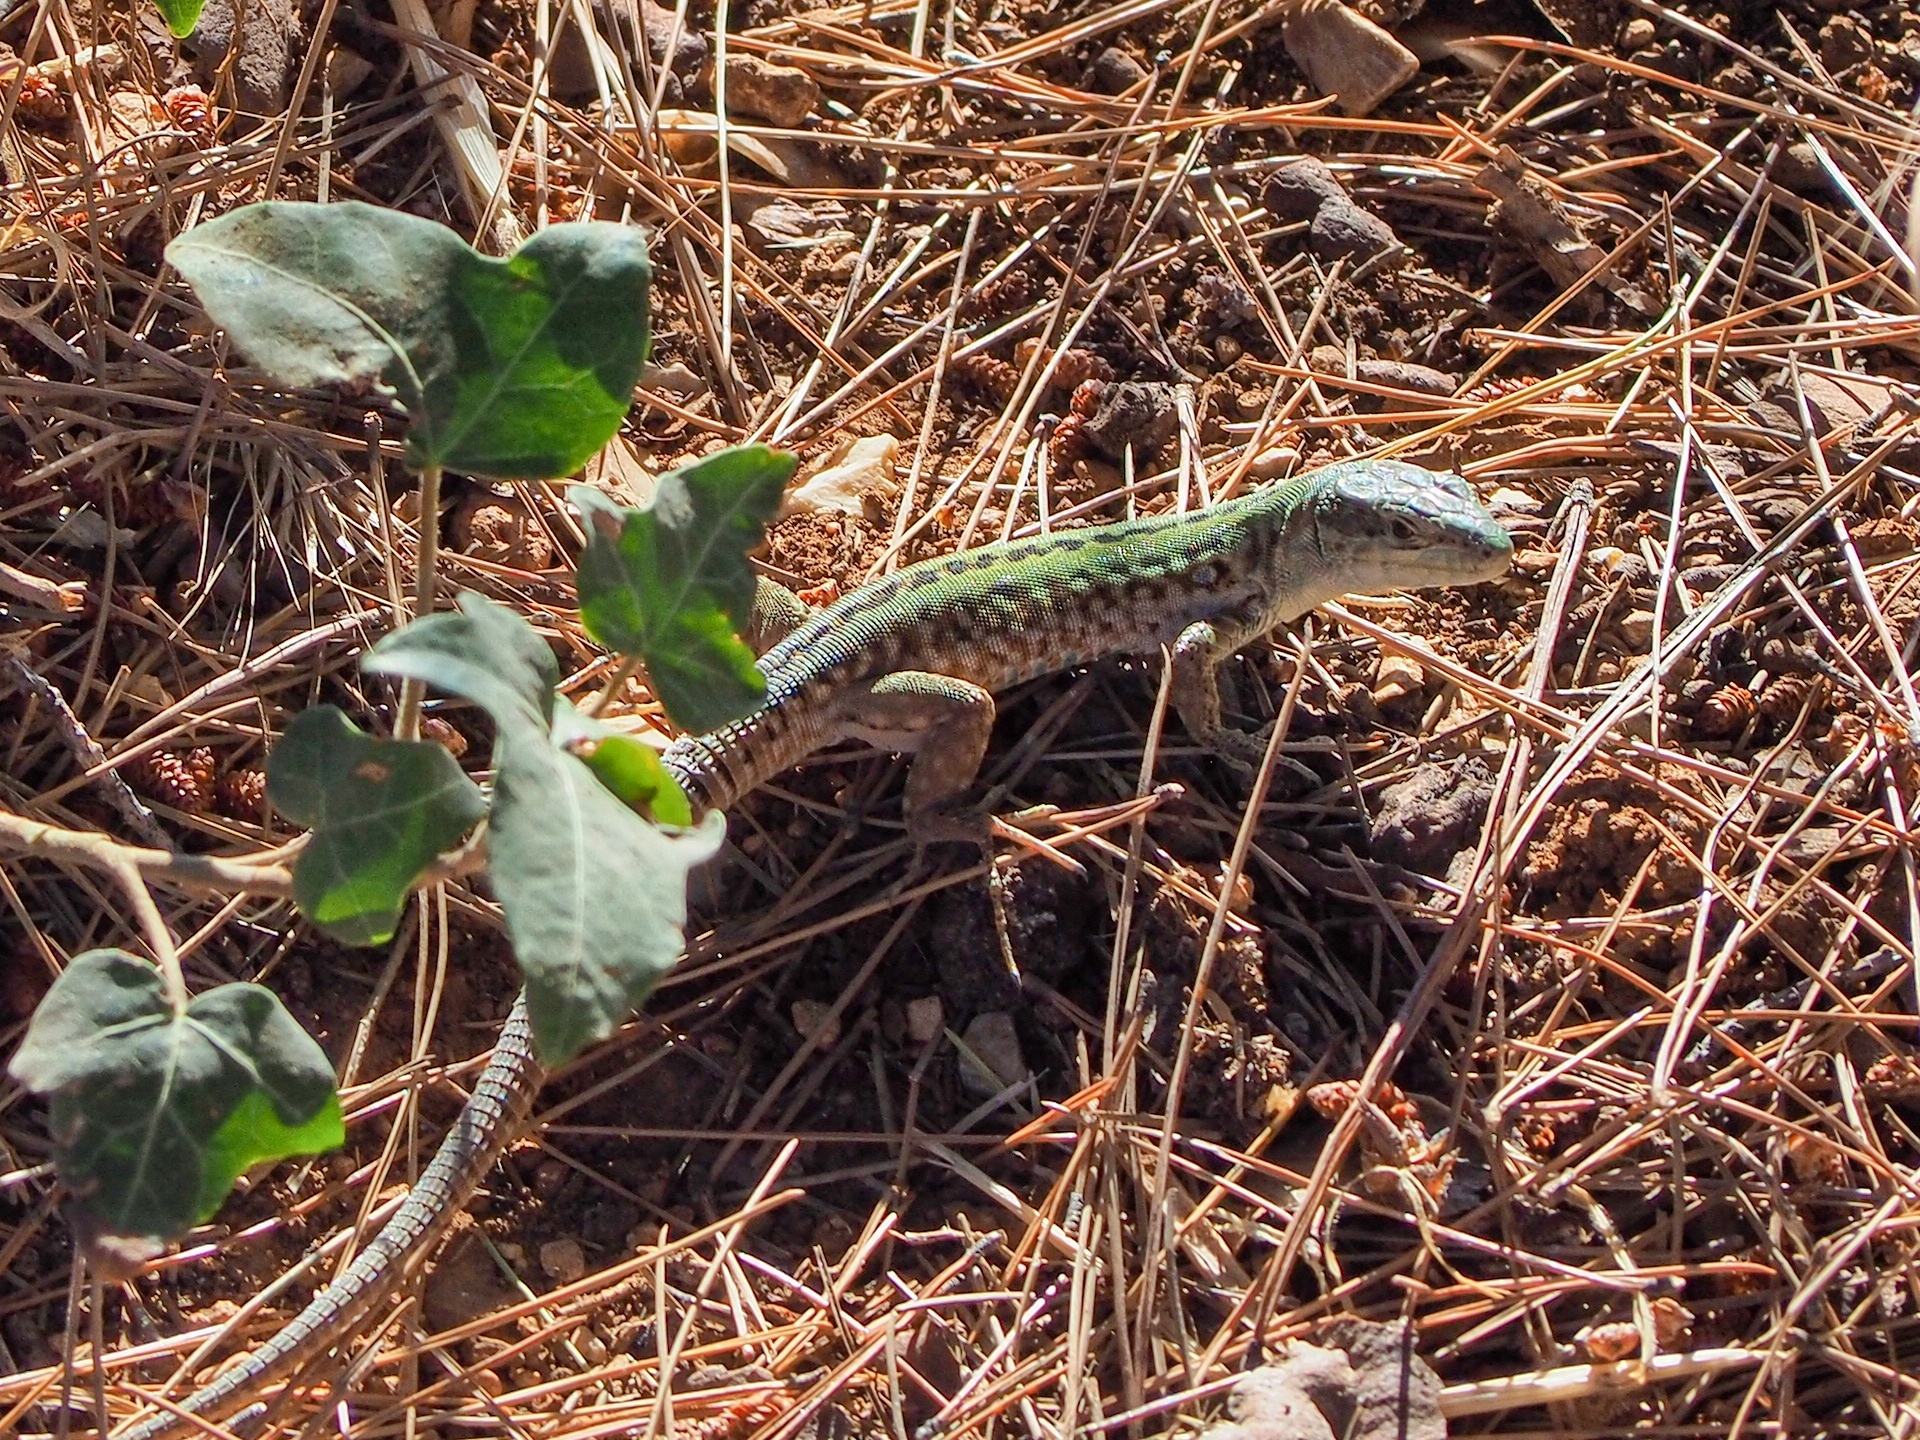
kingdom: Animalia
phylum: Chordata
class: Squamata
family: Lacertidae
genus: Podarcis
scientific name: Podarcis siculus
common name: Italian wall lizard
